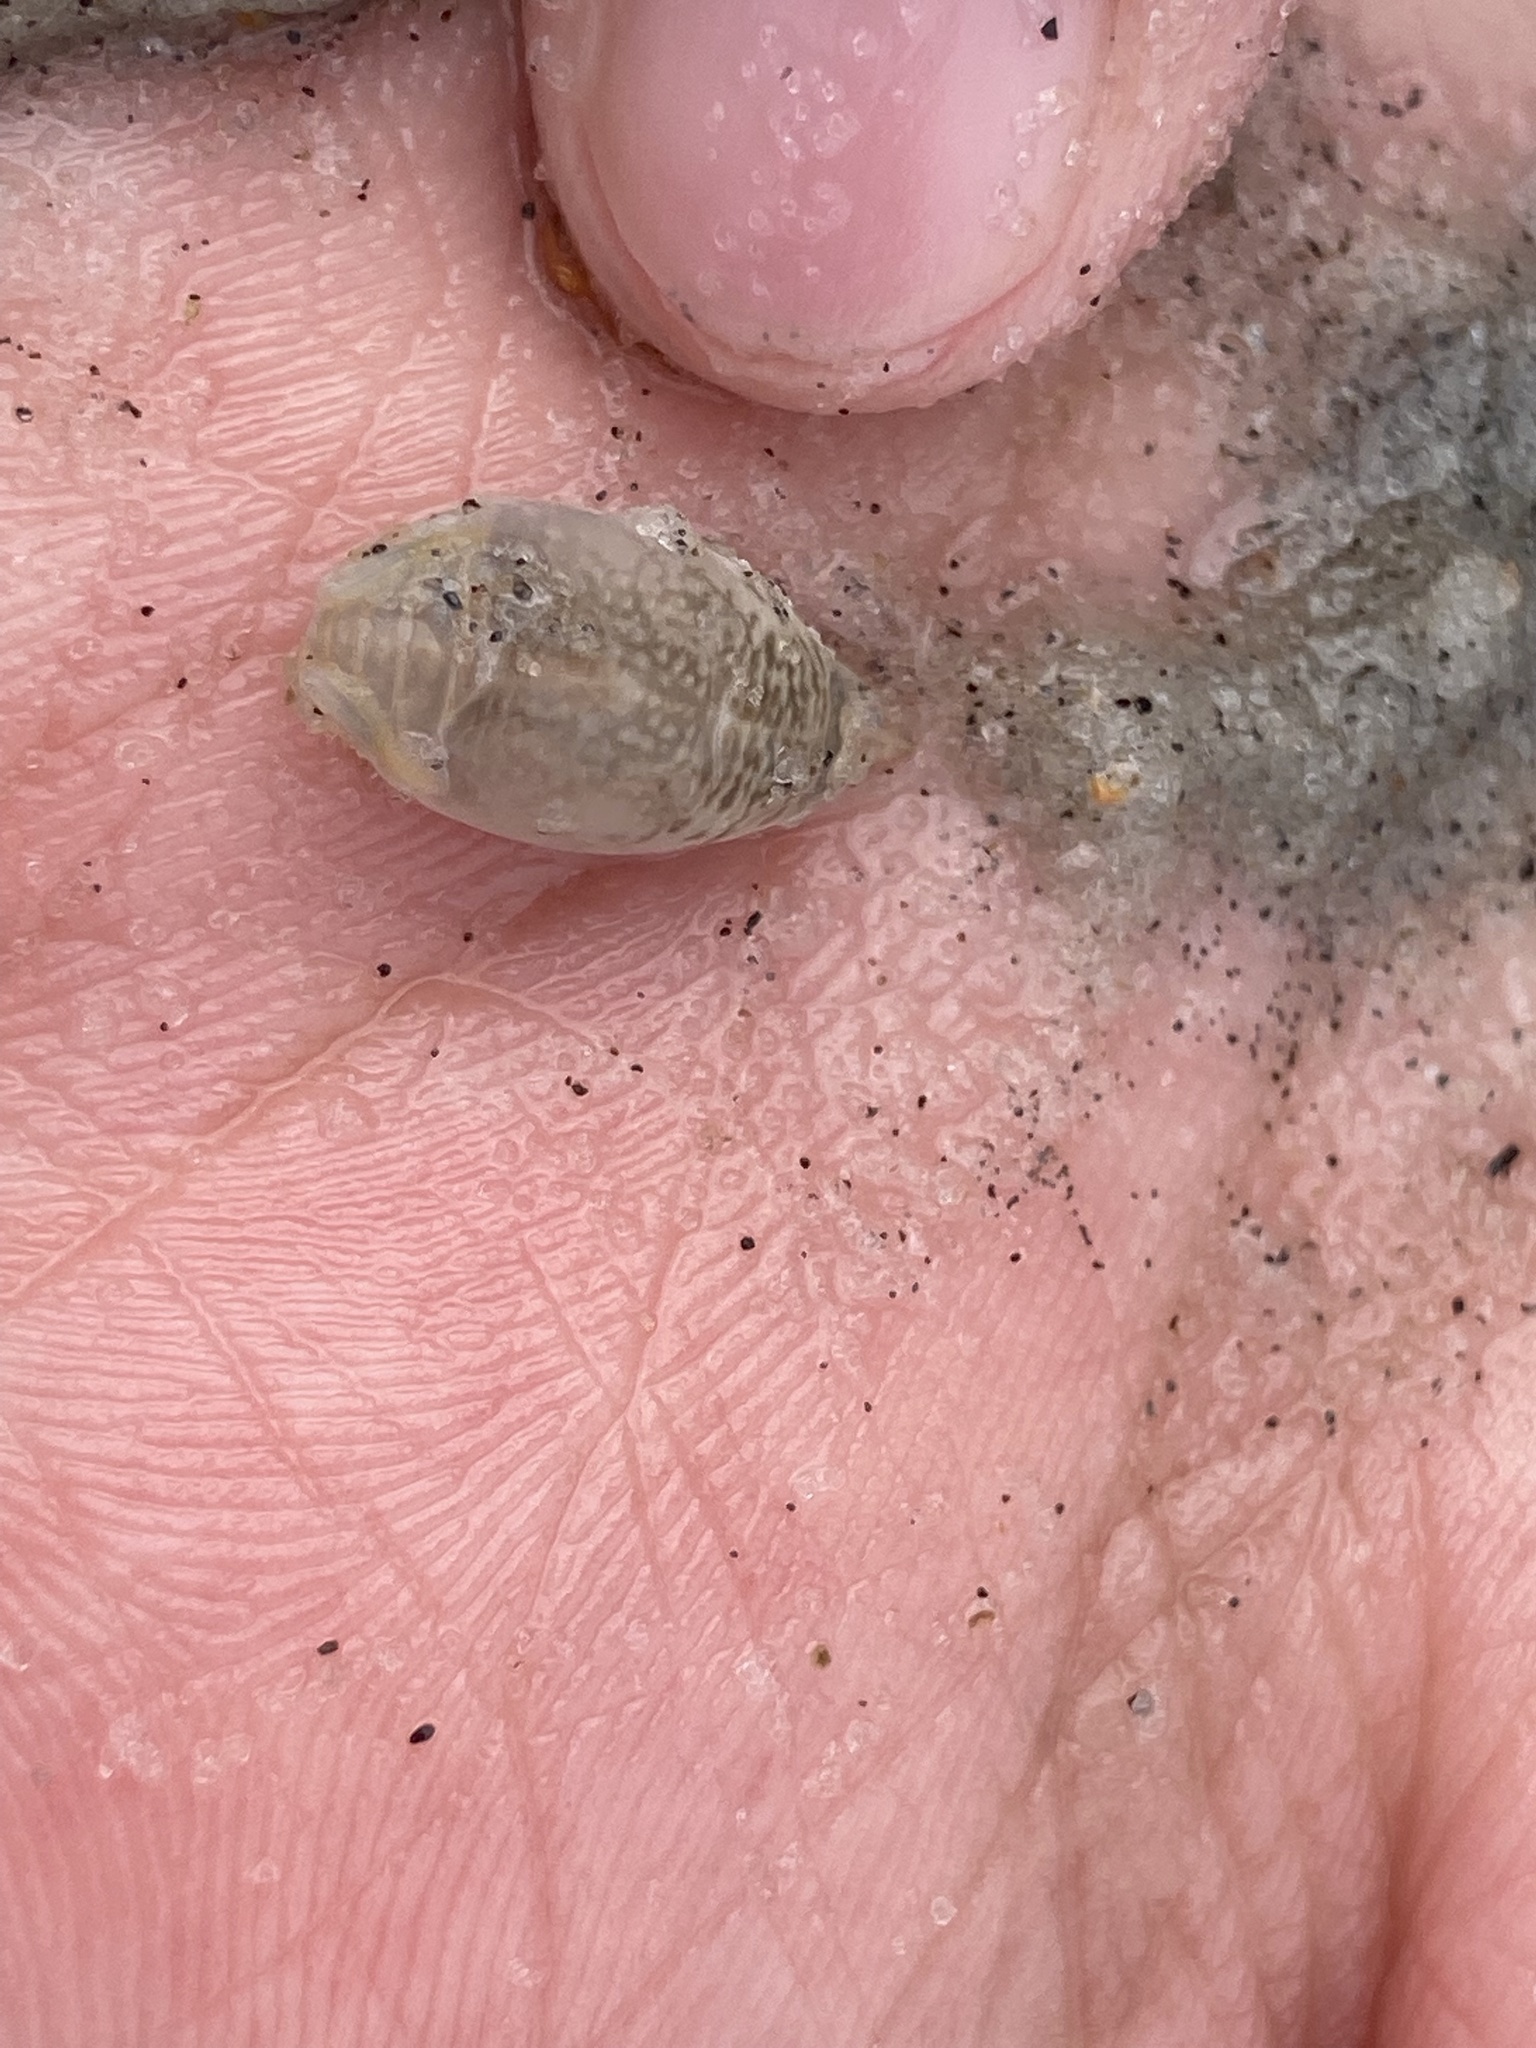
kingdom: Animalia
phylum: Arthropoda
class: Malacostraca
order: Decapoda
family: Hippidae
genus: Emerita
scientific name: Emerita talpoida
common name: Atlantic sand crab
